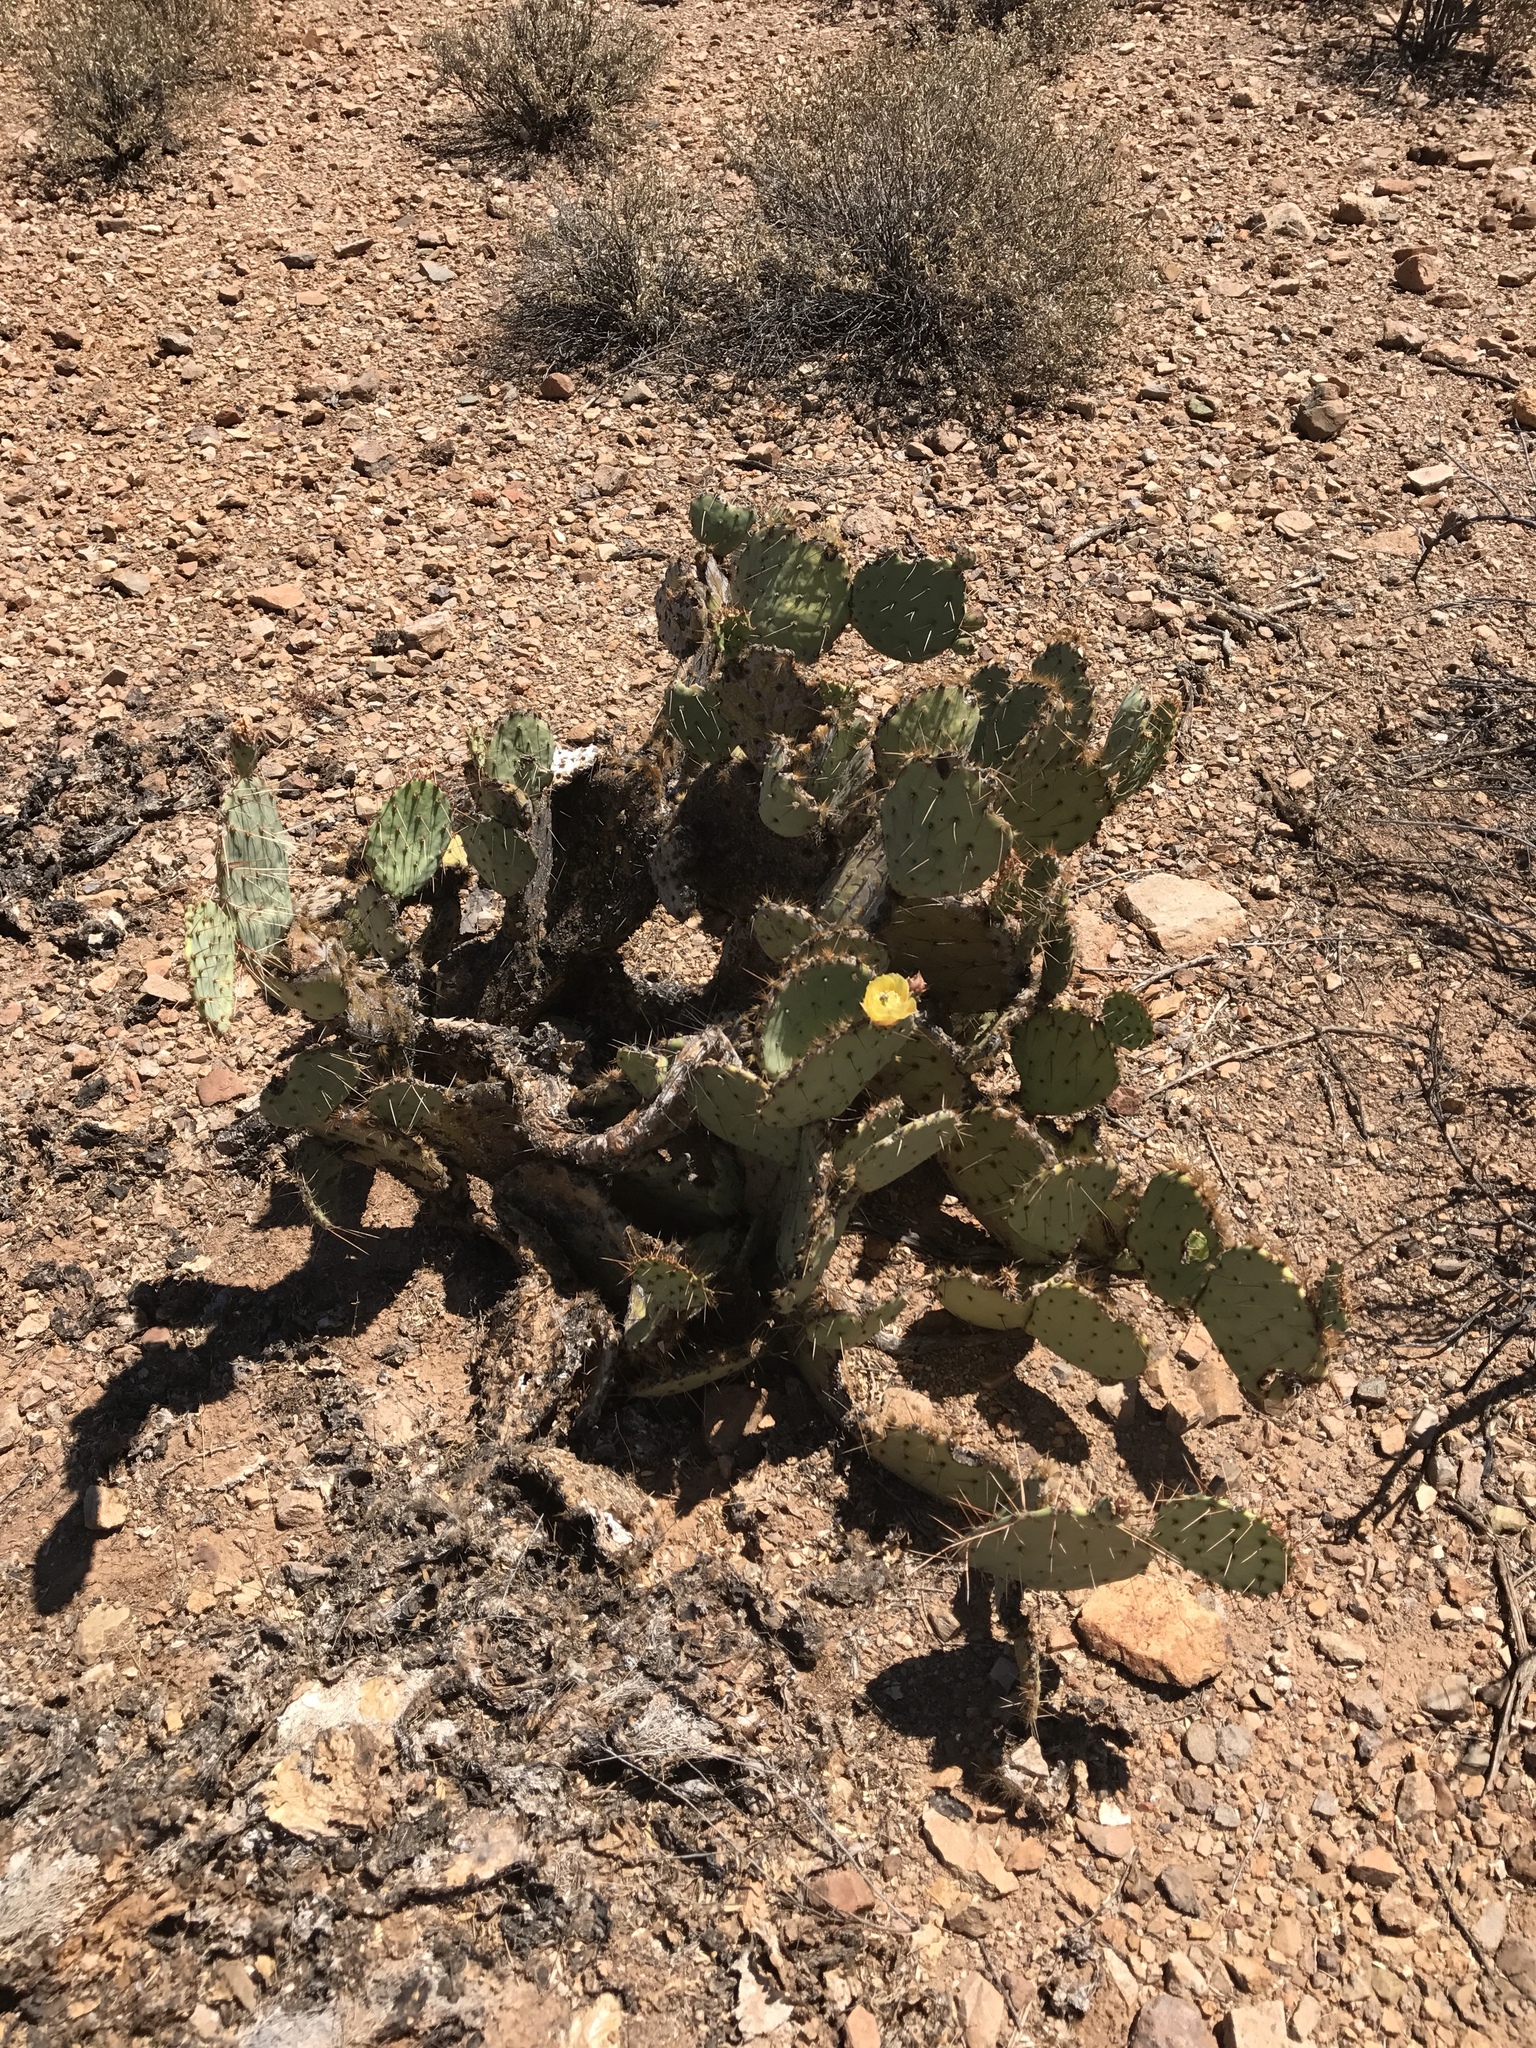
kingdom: Plantae
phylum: Tracheophyta
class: Magnoliopsida
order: Caryophyllales
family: Cactaceae
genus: Opuntia
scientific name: Opuntia engelmannii
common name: Cactus-apple
